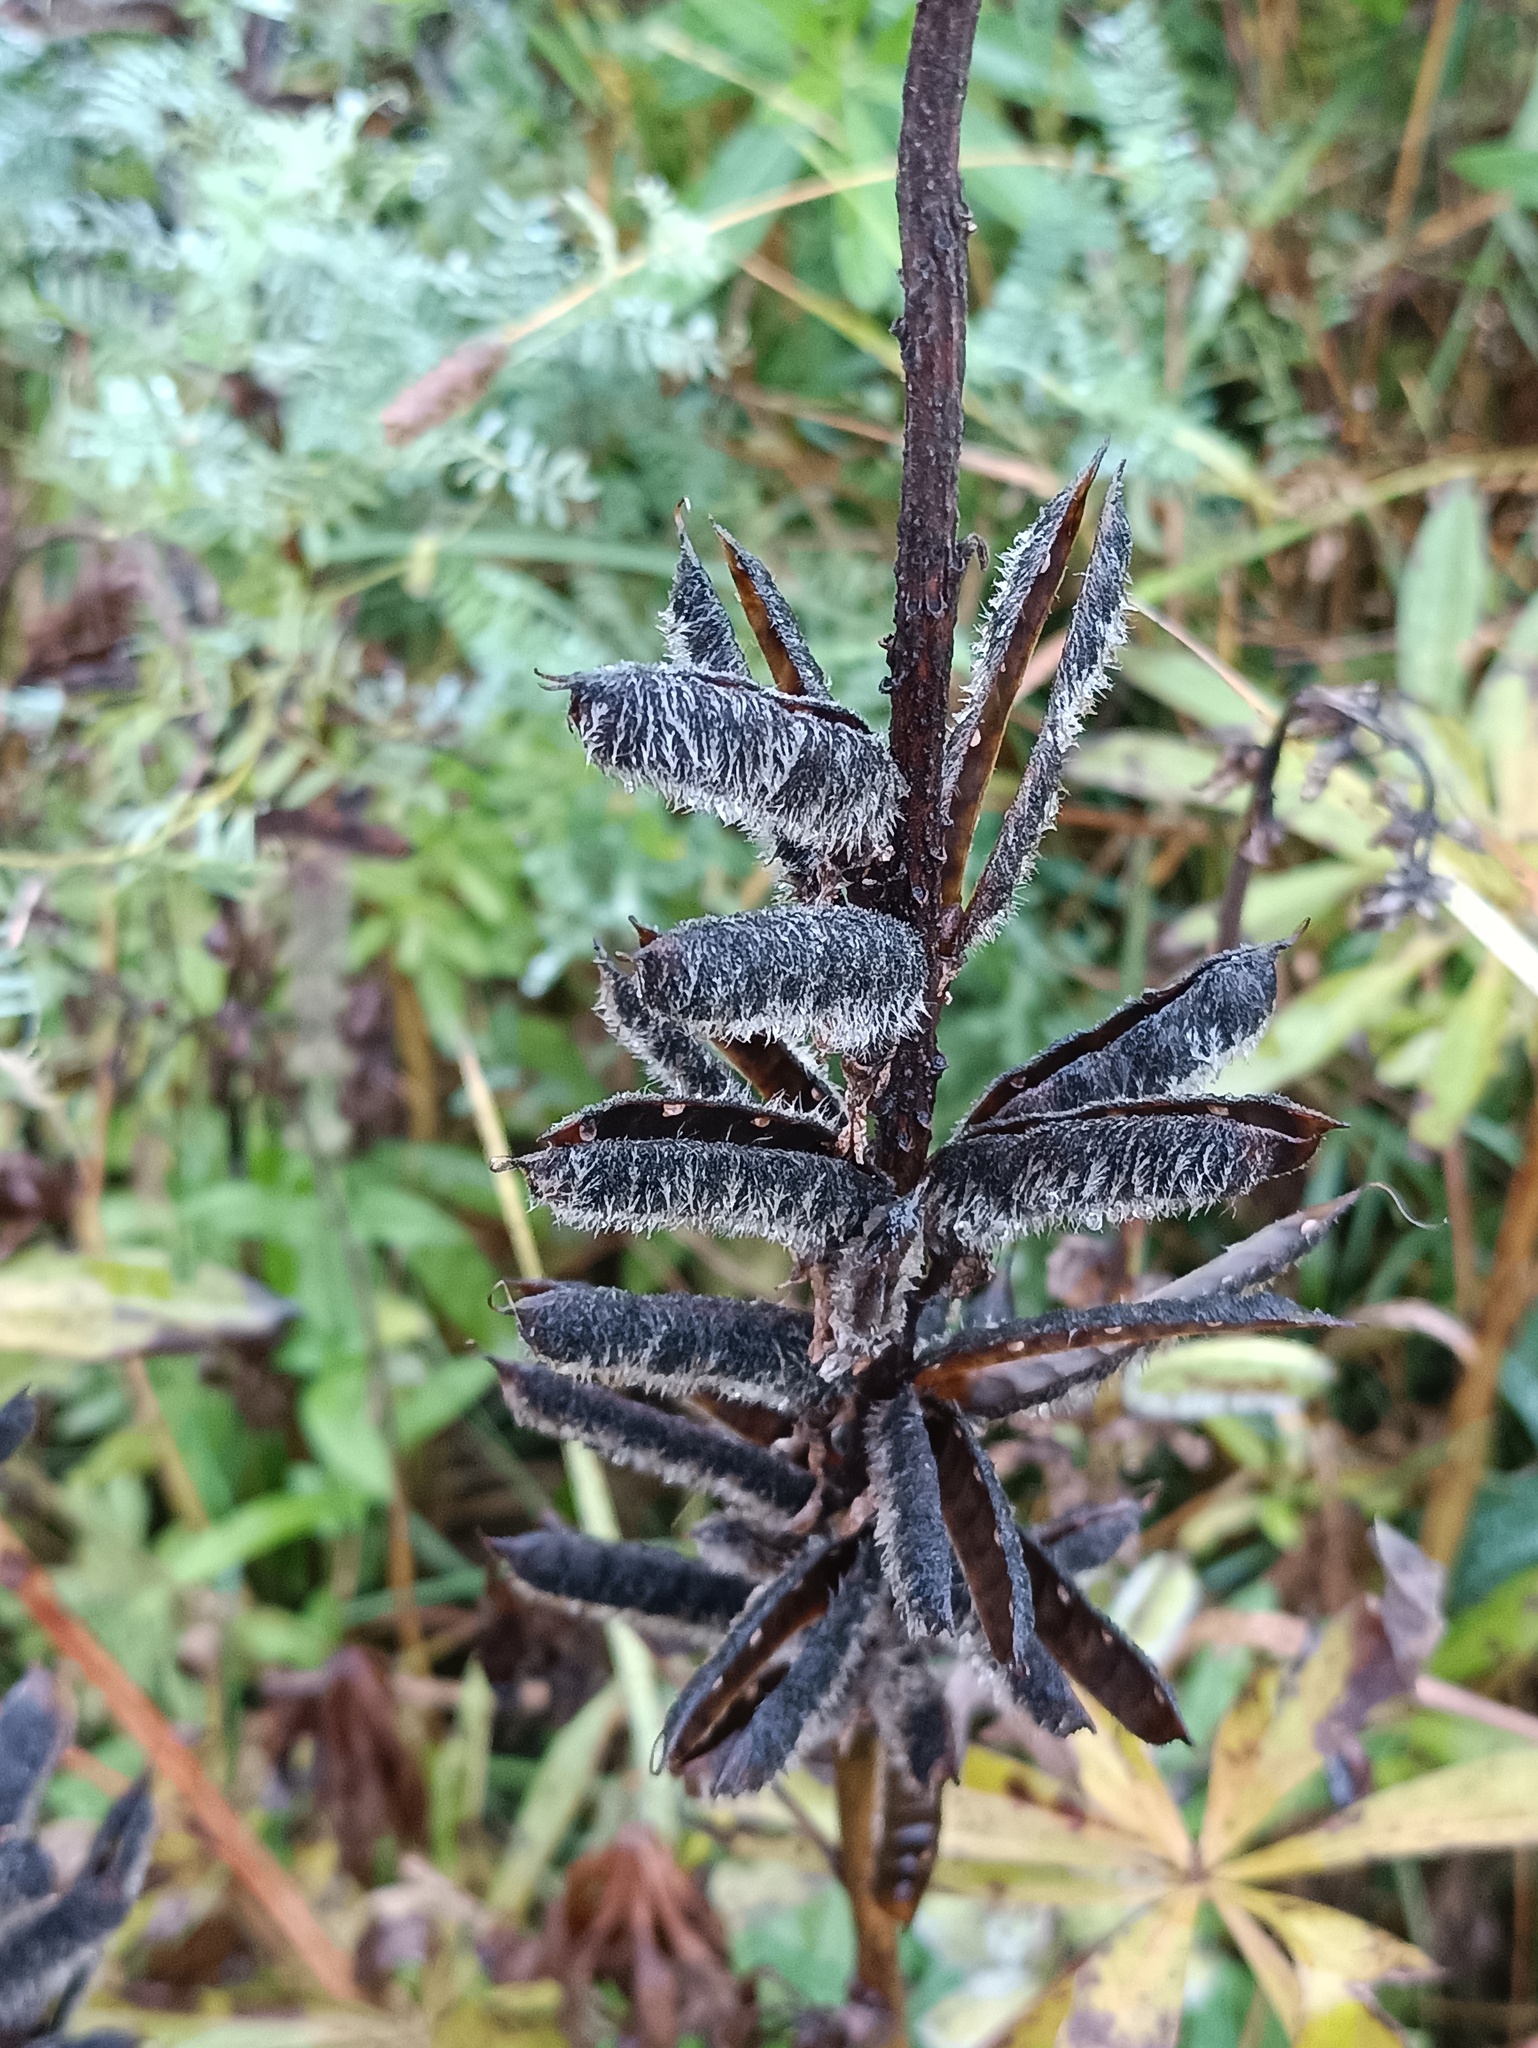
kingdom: Plantae
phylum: Tracheophyta
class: Magnoliopsida
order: Fabales
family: Fabaceae
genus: Lupinus
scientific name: Lupinus polyphyllus
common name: Garden lupin
